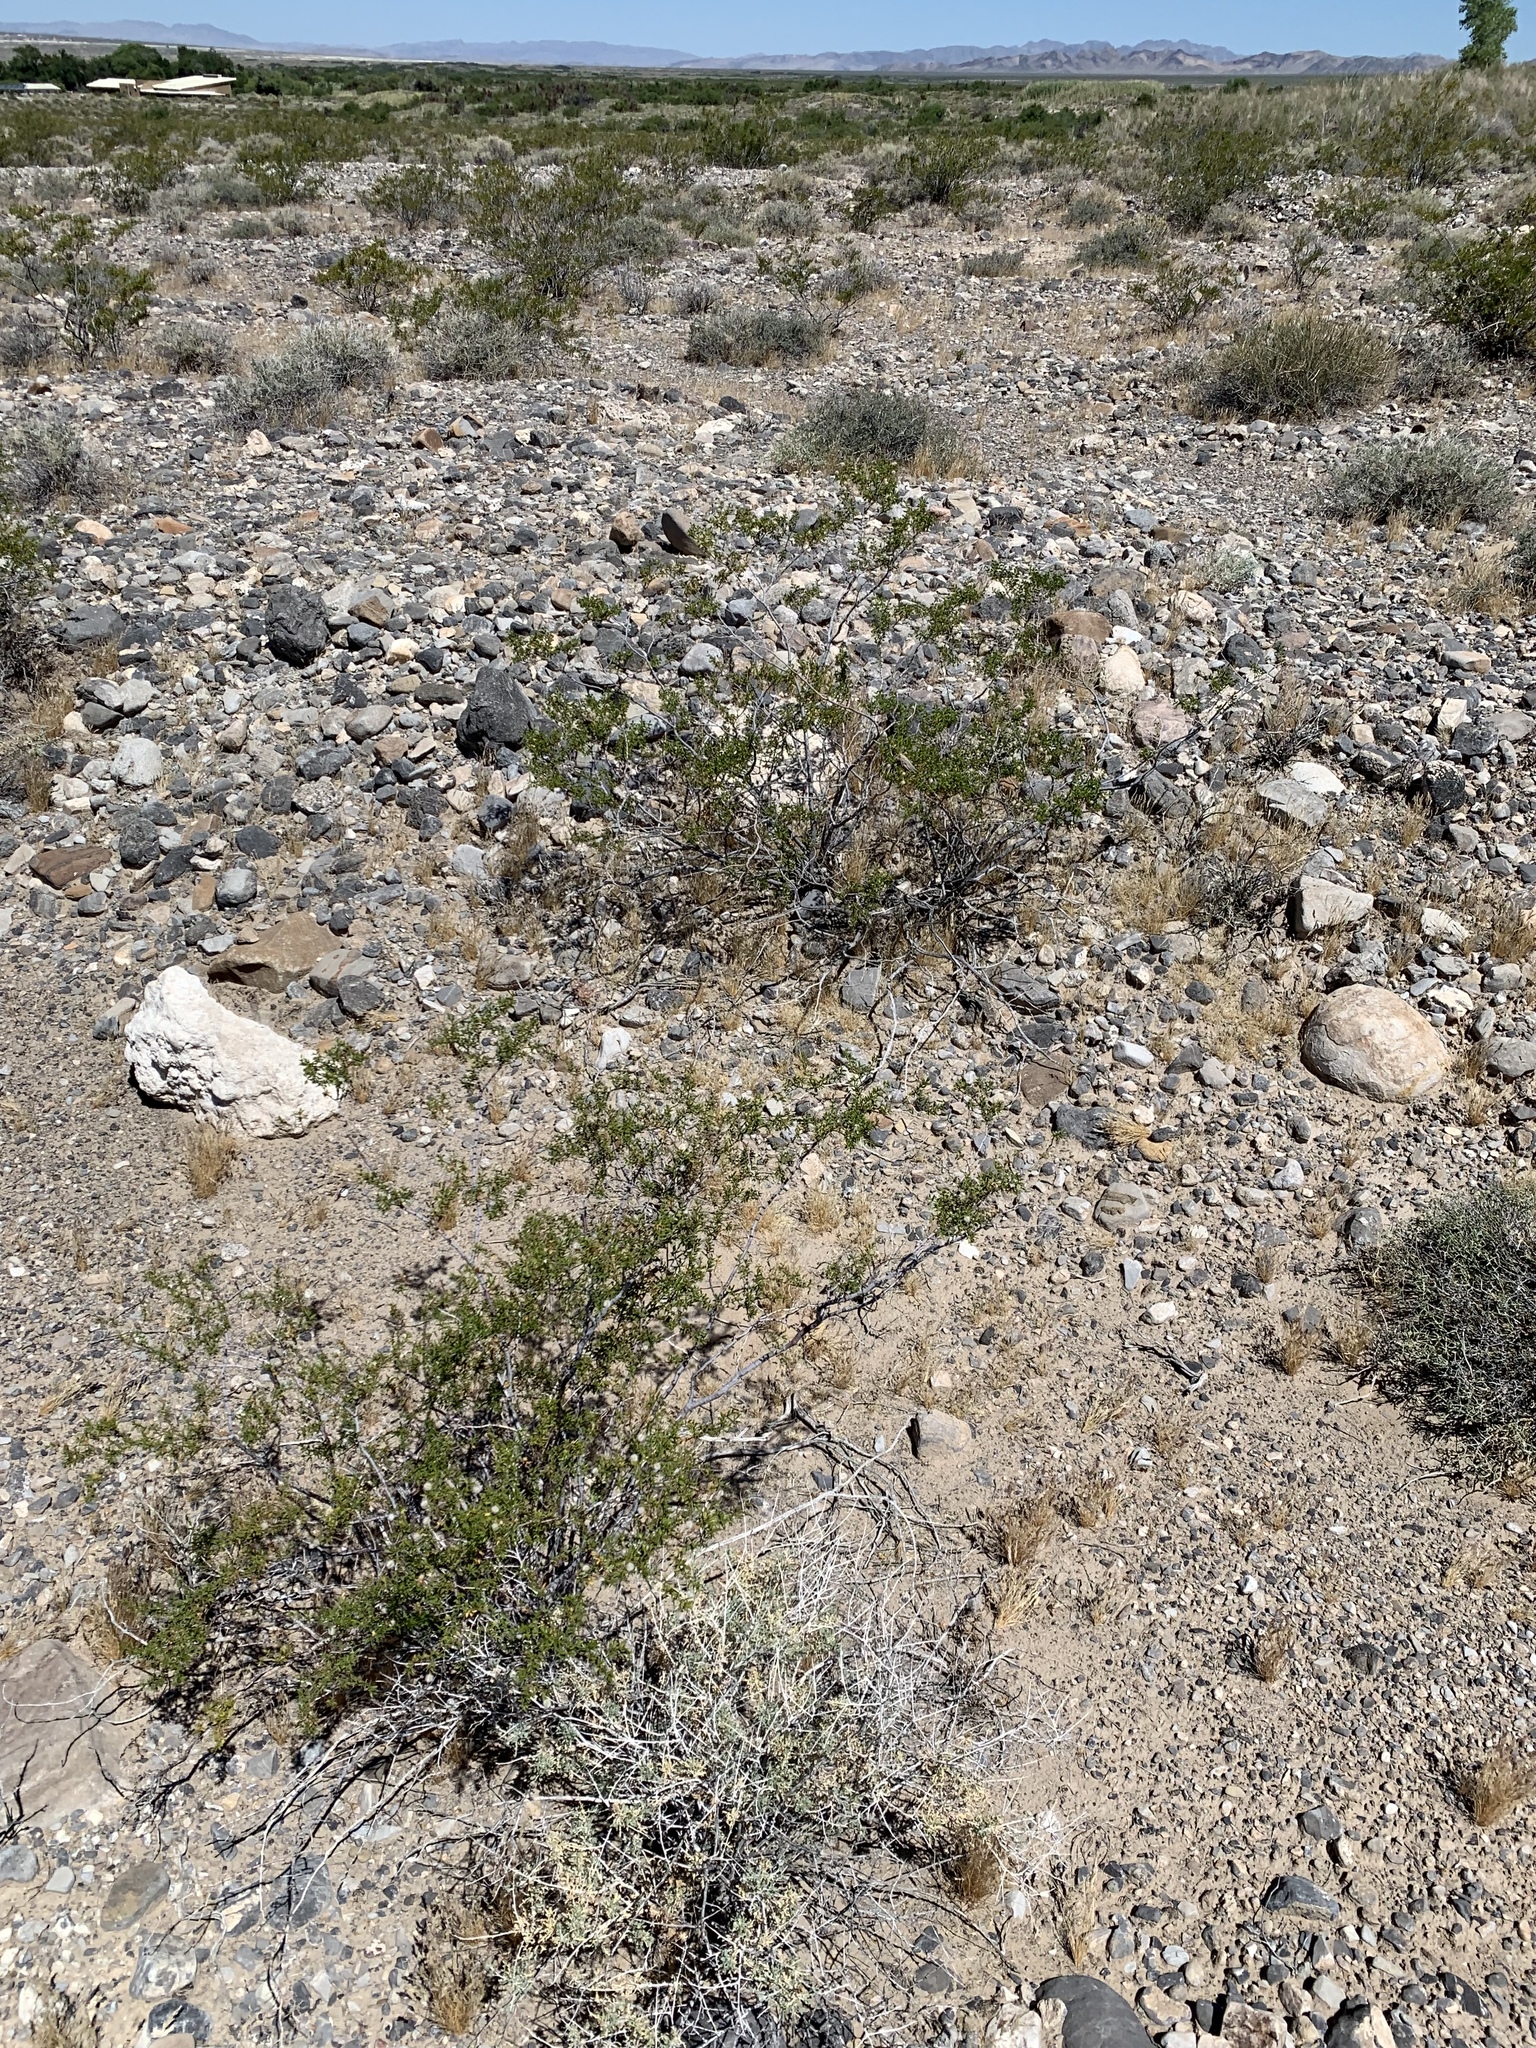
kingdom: Plantae
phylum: Tracheophyta
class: Magnoliopsida
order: Zygophyllales
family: Zygophyllaceae
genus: Larrea
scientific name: Larrea tridentata
